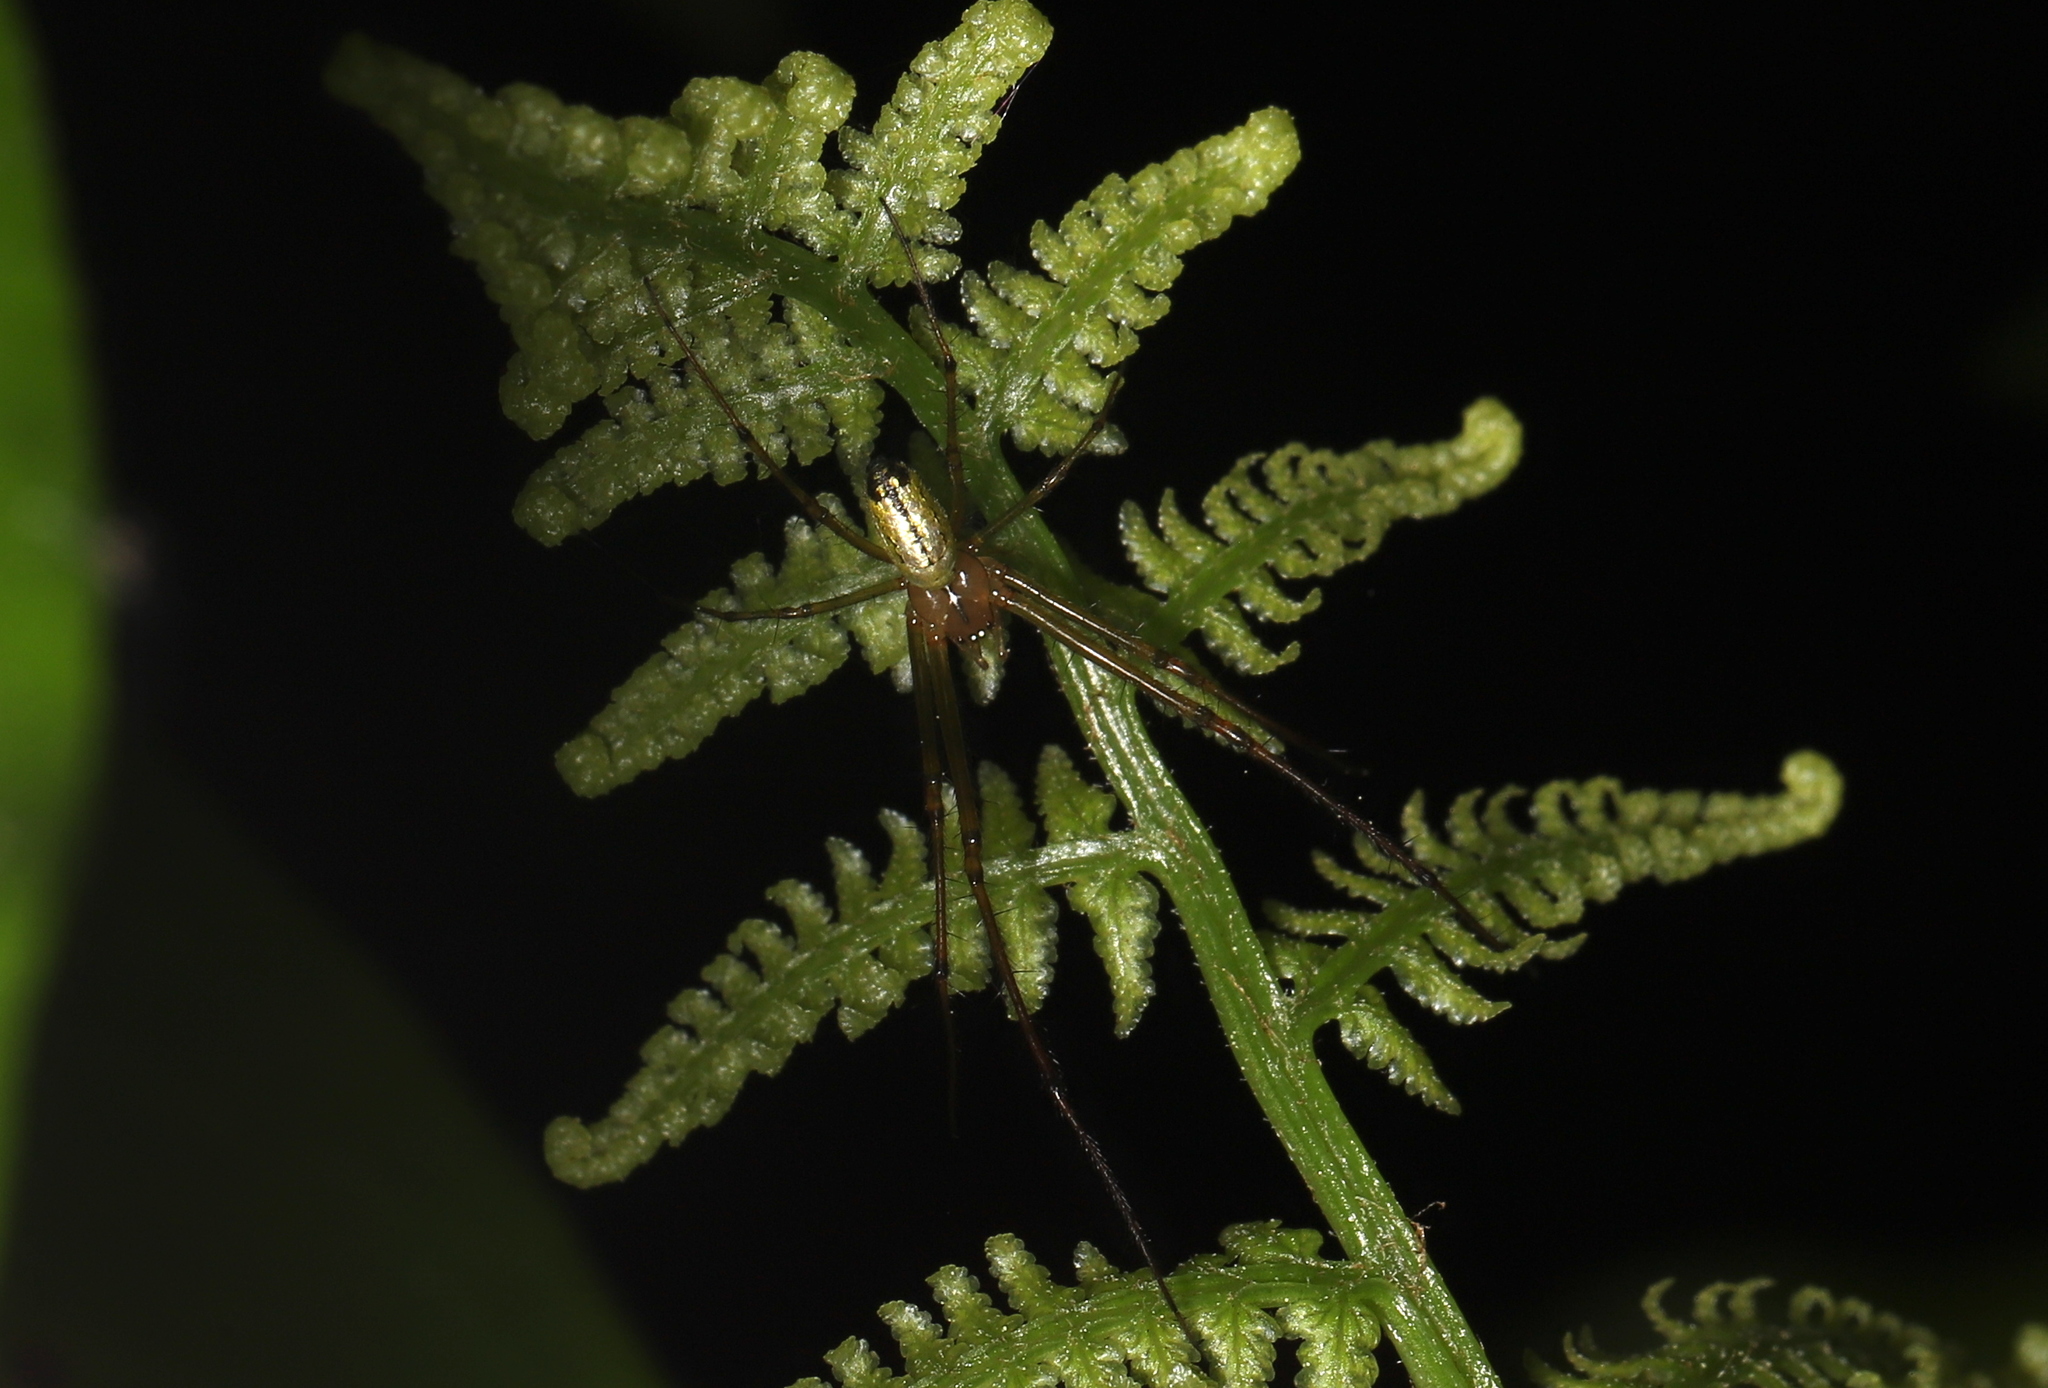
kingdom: Animalia
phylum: Arthropoda
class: Arachnida
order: Araneae
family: Tetragnathidae
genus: Leucauge
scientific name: Leucauge venusta
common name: Longjawed orb weavers
